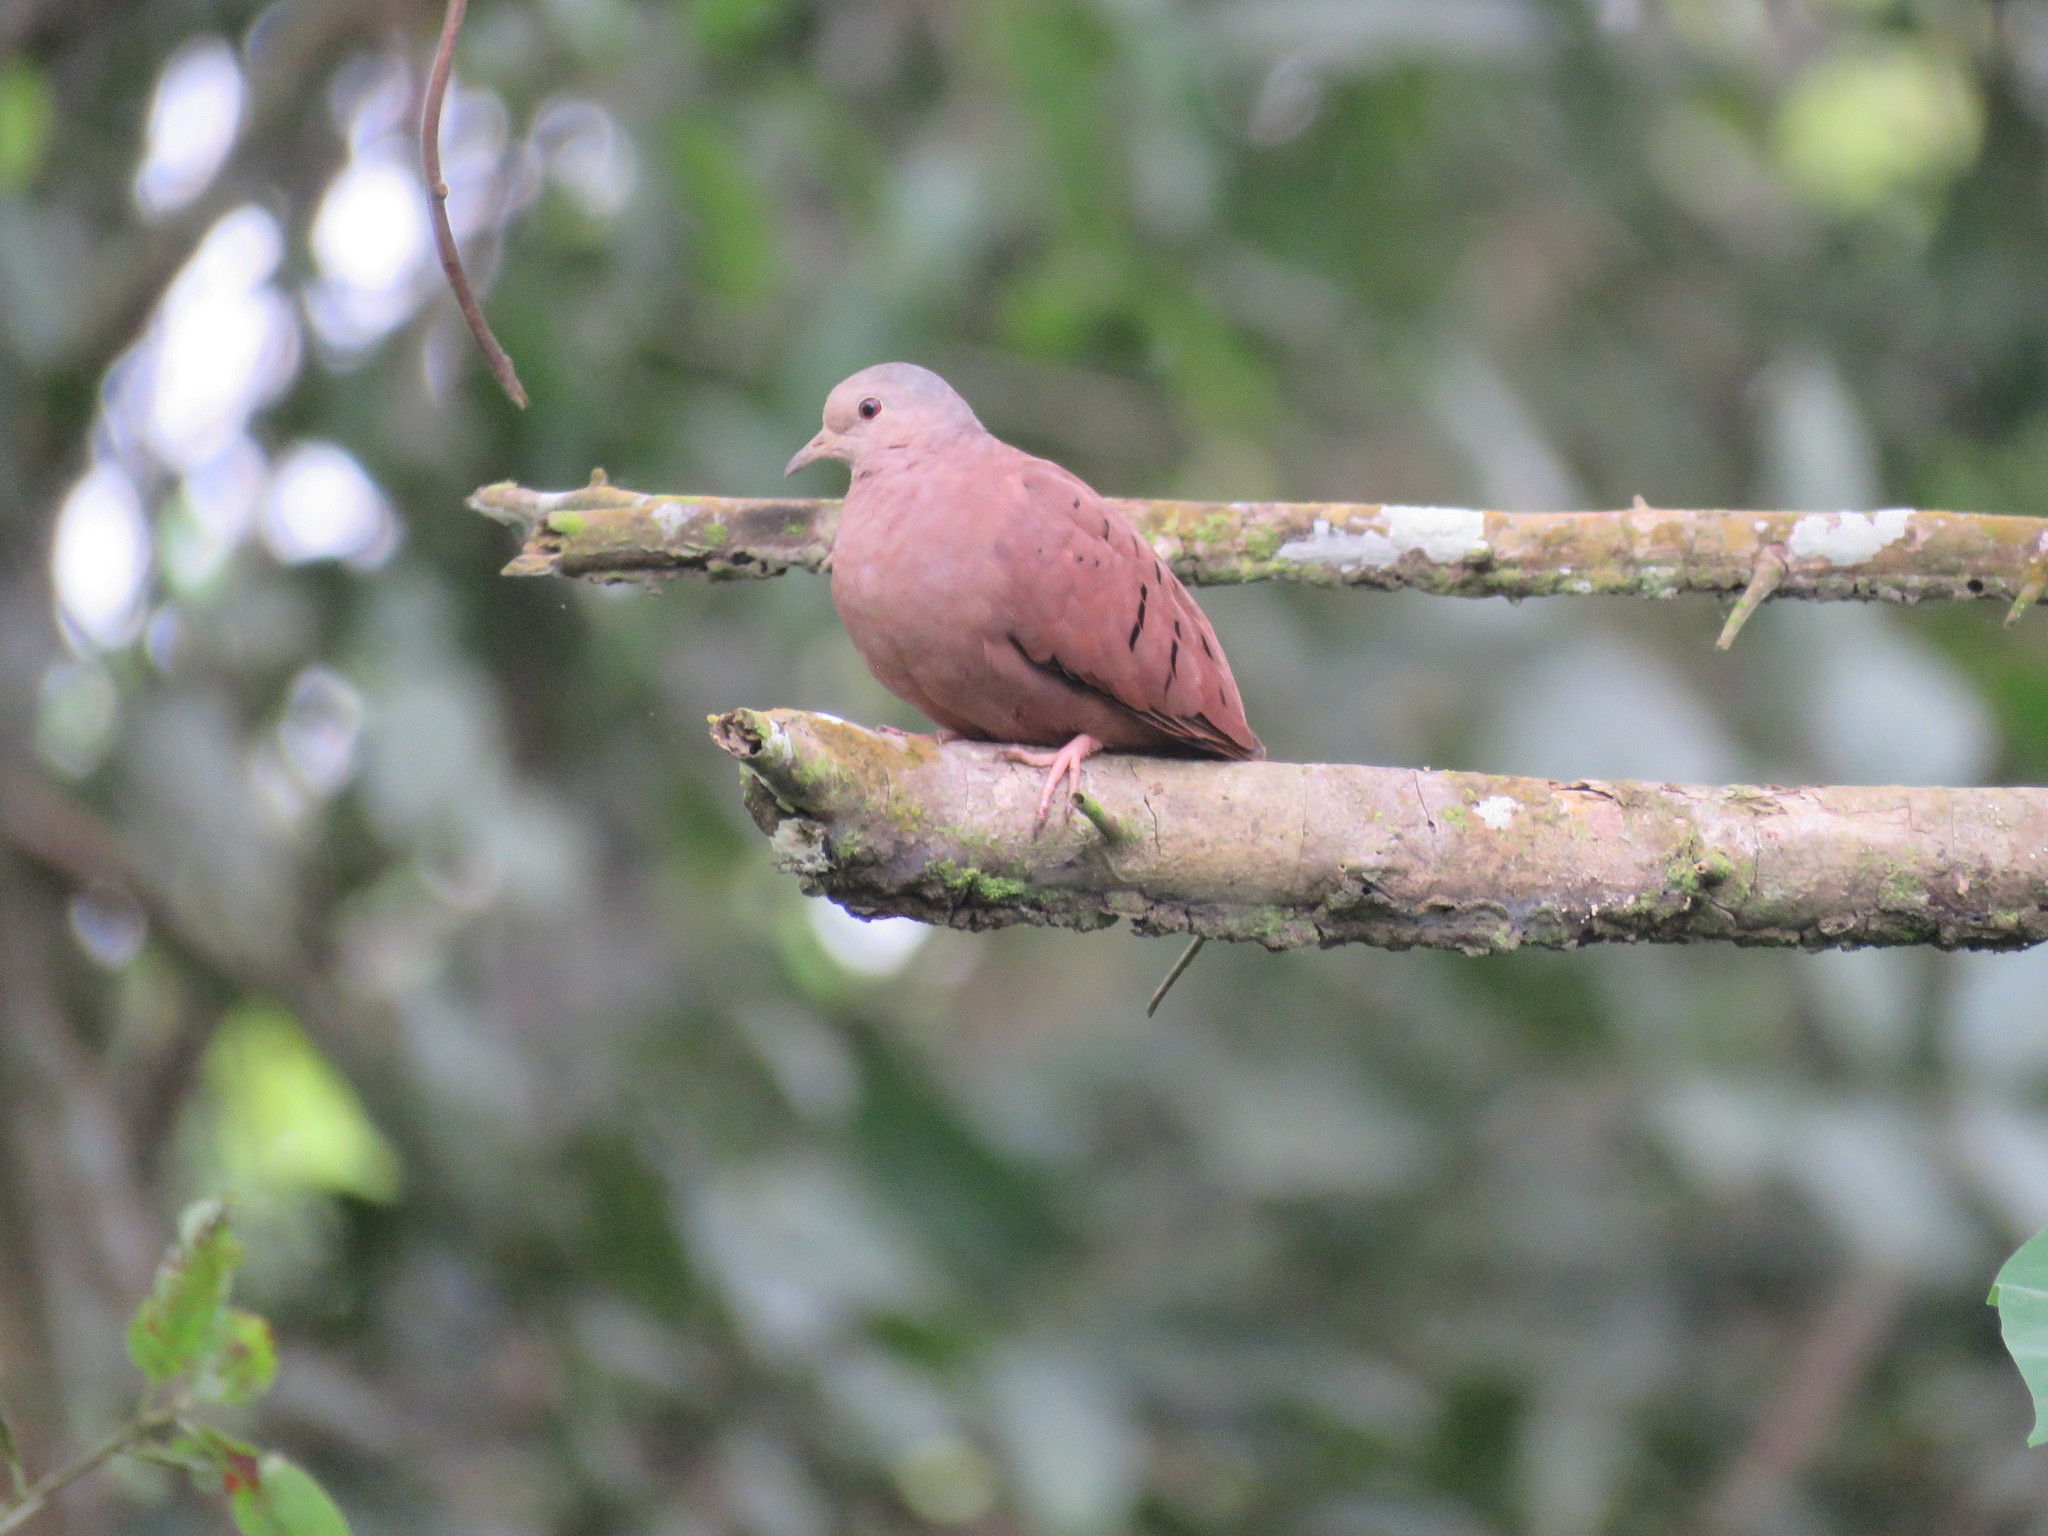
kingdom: Animalia
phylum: Chordata
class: Aves
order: Columbiformes
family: Columbidae
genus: Columbina
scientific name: Columbina talpacoti
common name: Ruddy ground dove
